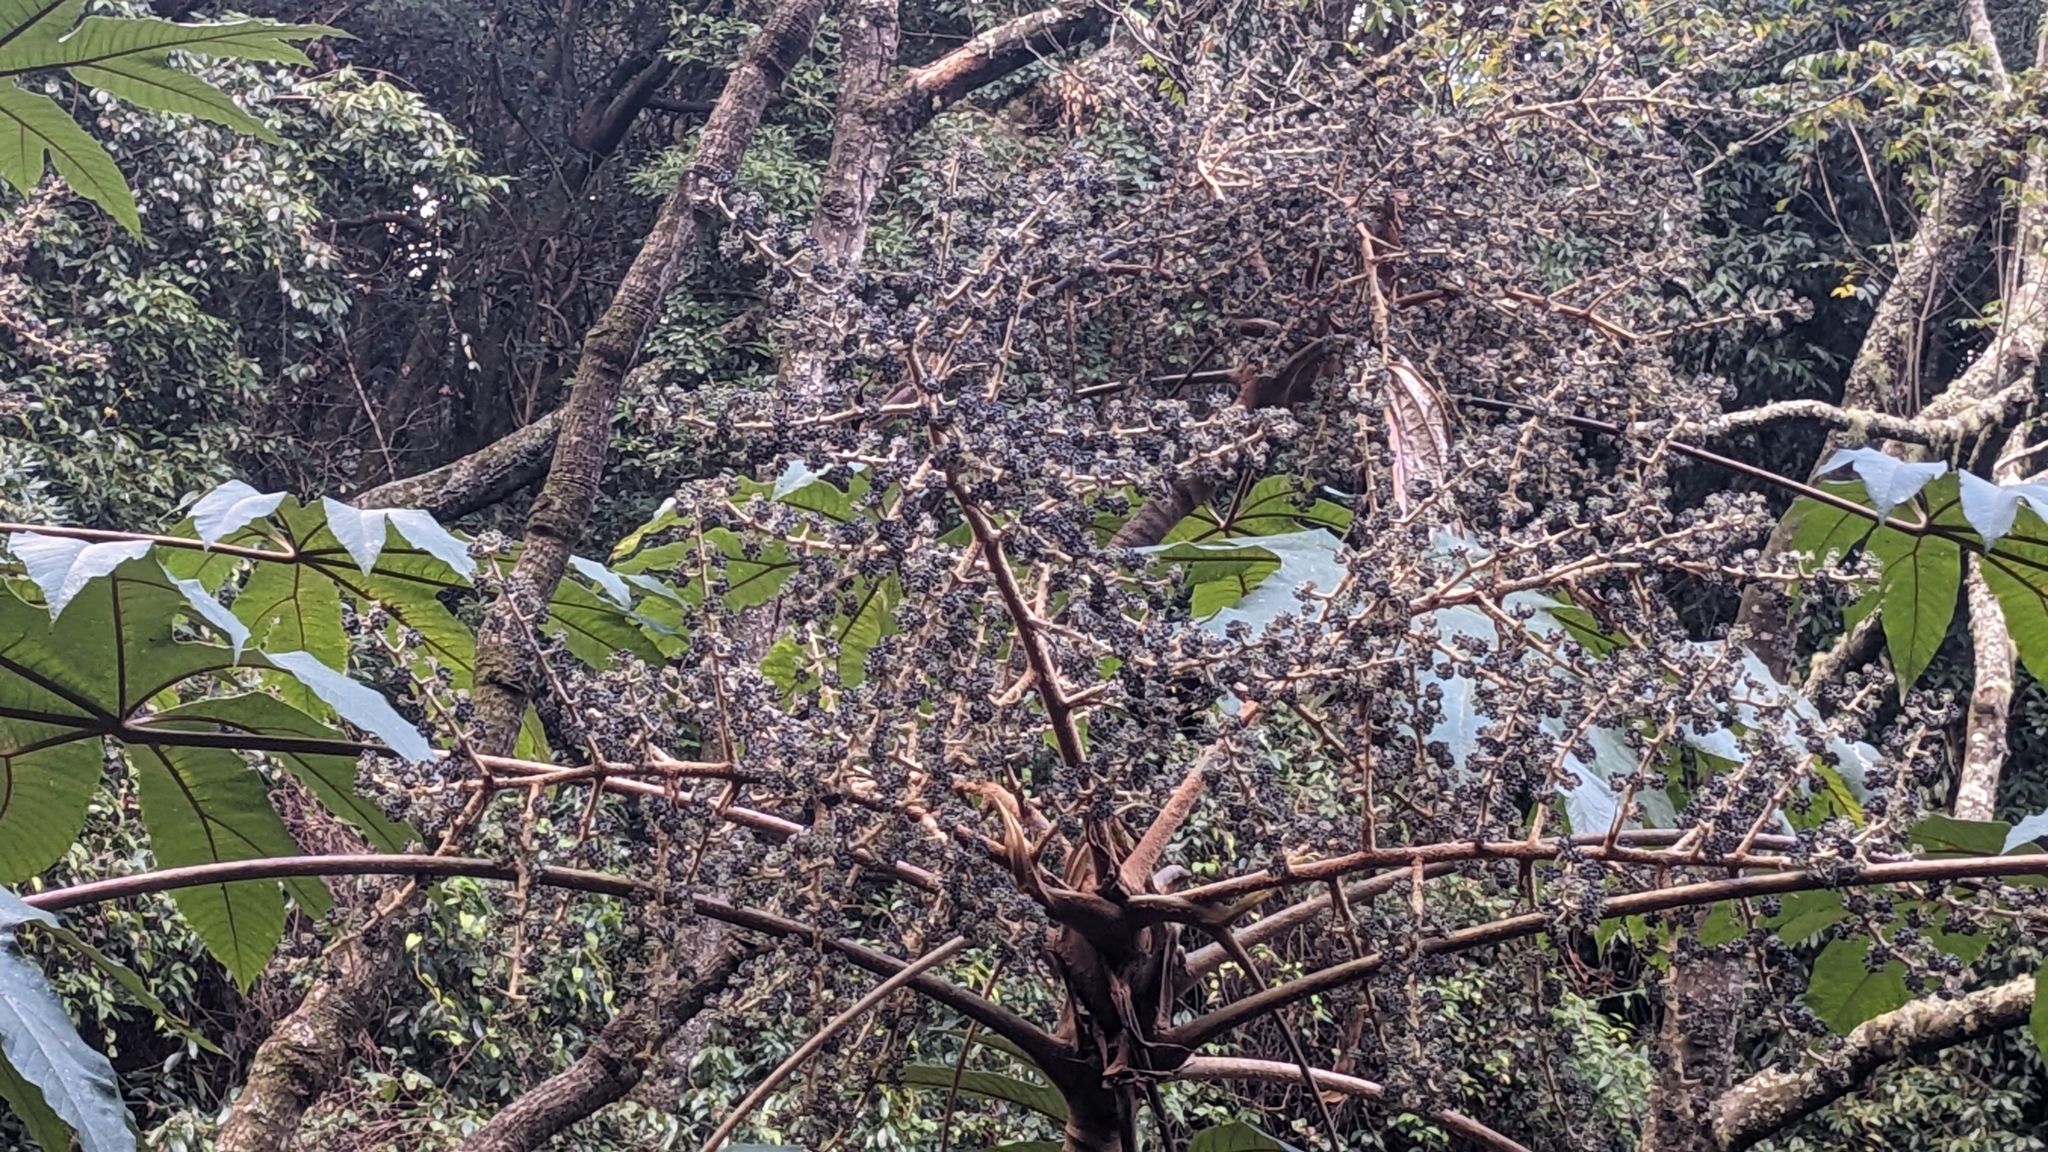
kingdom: Plantae
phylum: Tracheophyta
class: Magnoliopsida
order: Apiales
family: Araliaceae
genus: Tetrapanax
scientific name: Tetrapanax papyrifer
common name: Rice-paper plant
